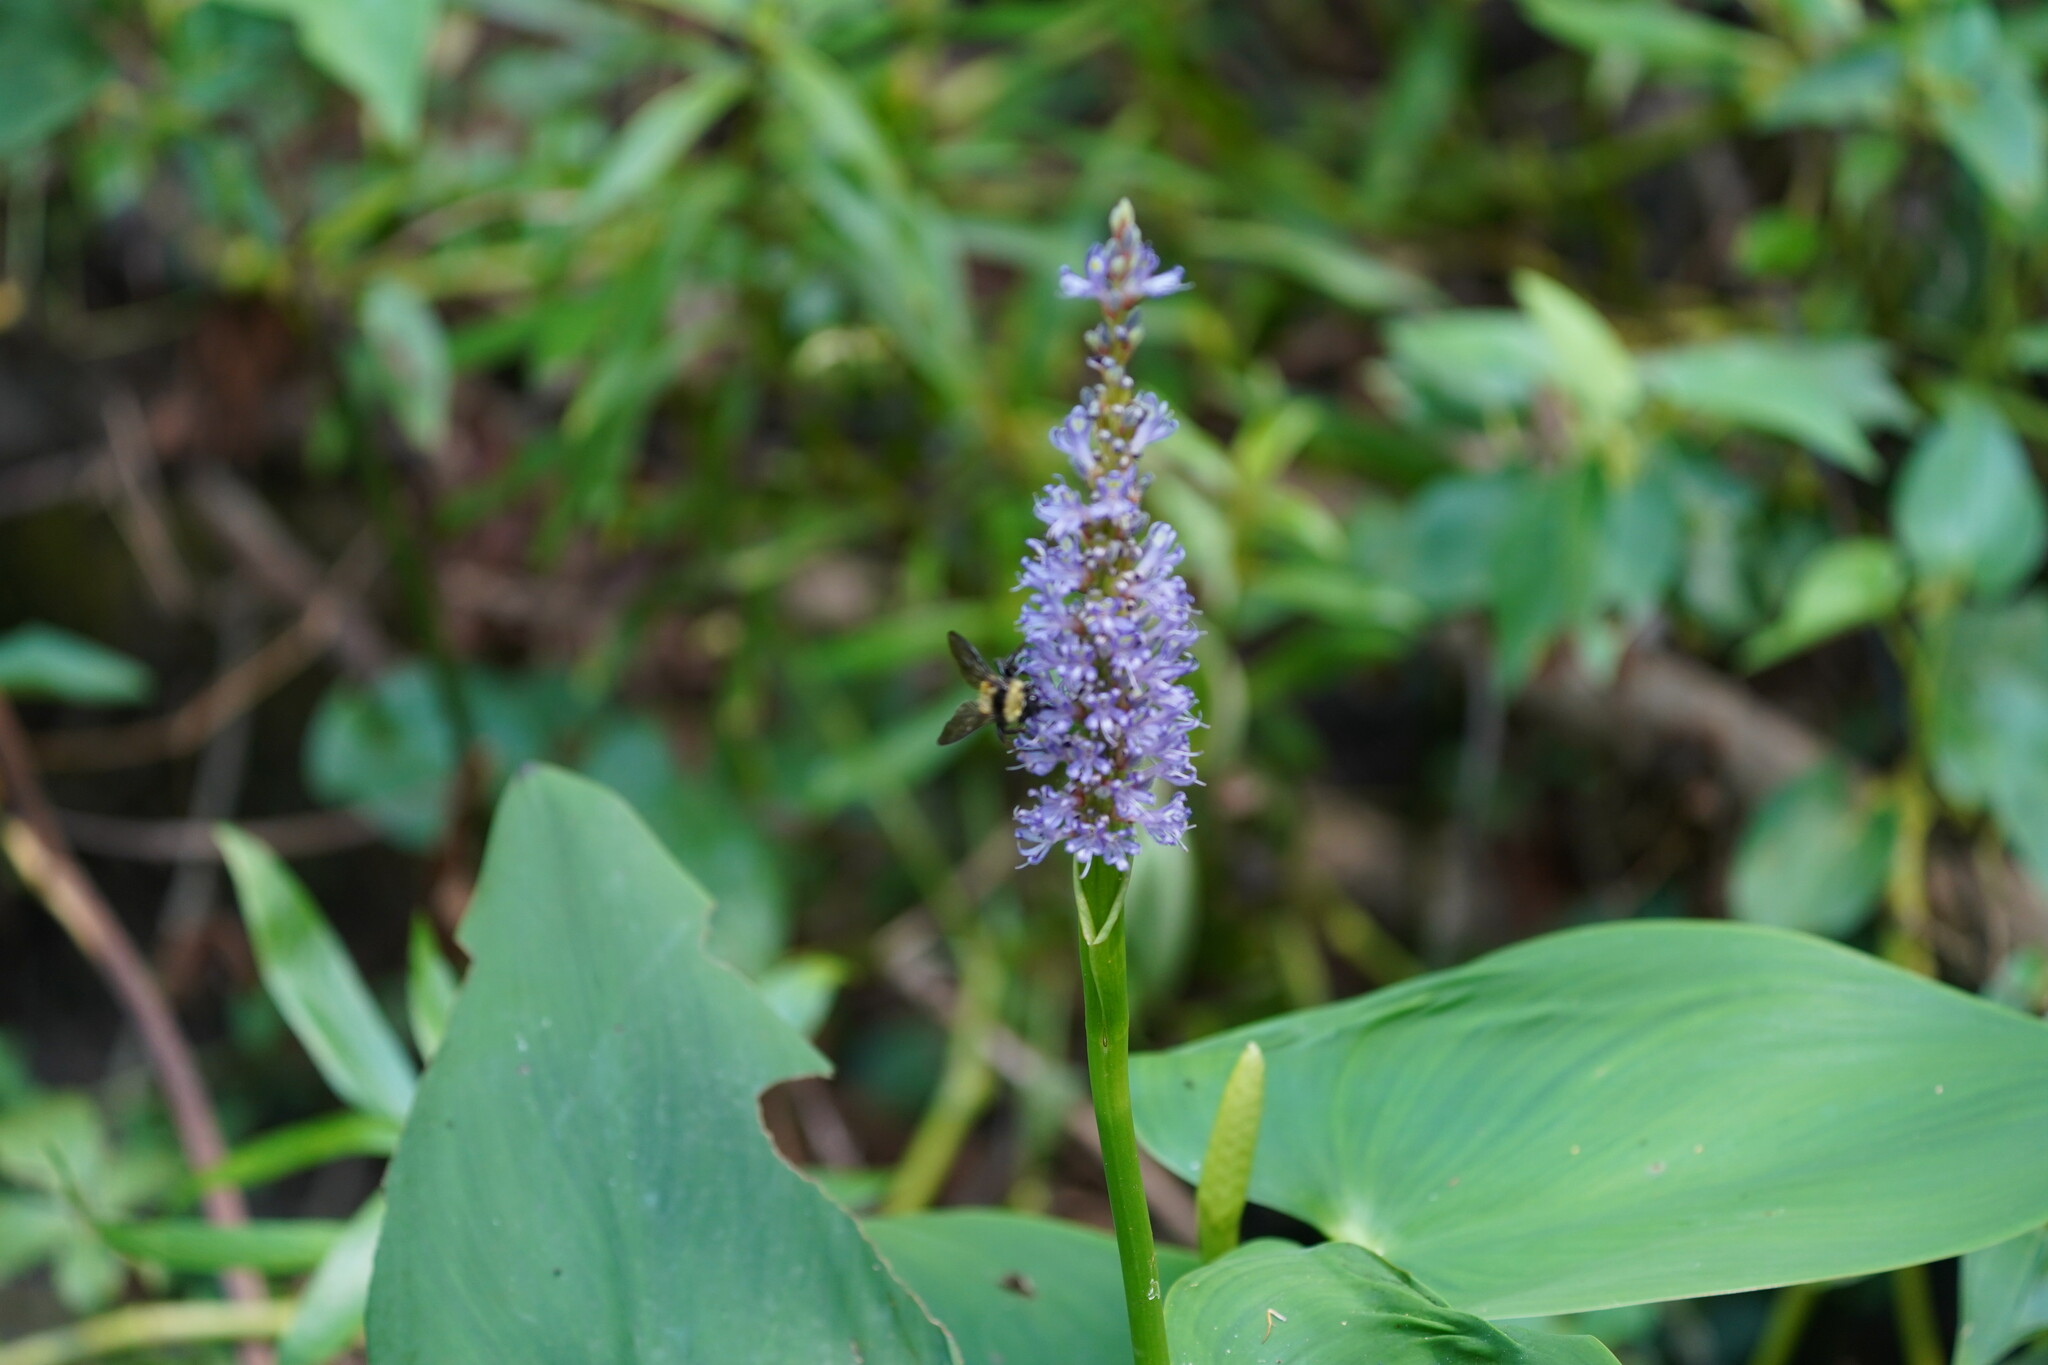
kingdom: Plantae
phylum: Tracheophyta
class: Liliopsida
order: Commelinales
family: Pontederiaceae
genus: Pontederia
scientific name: Pontederia cordata
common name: Pickerelweed
